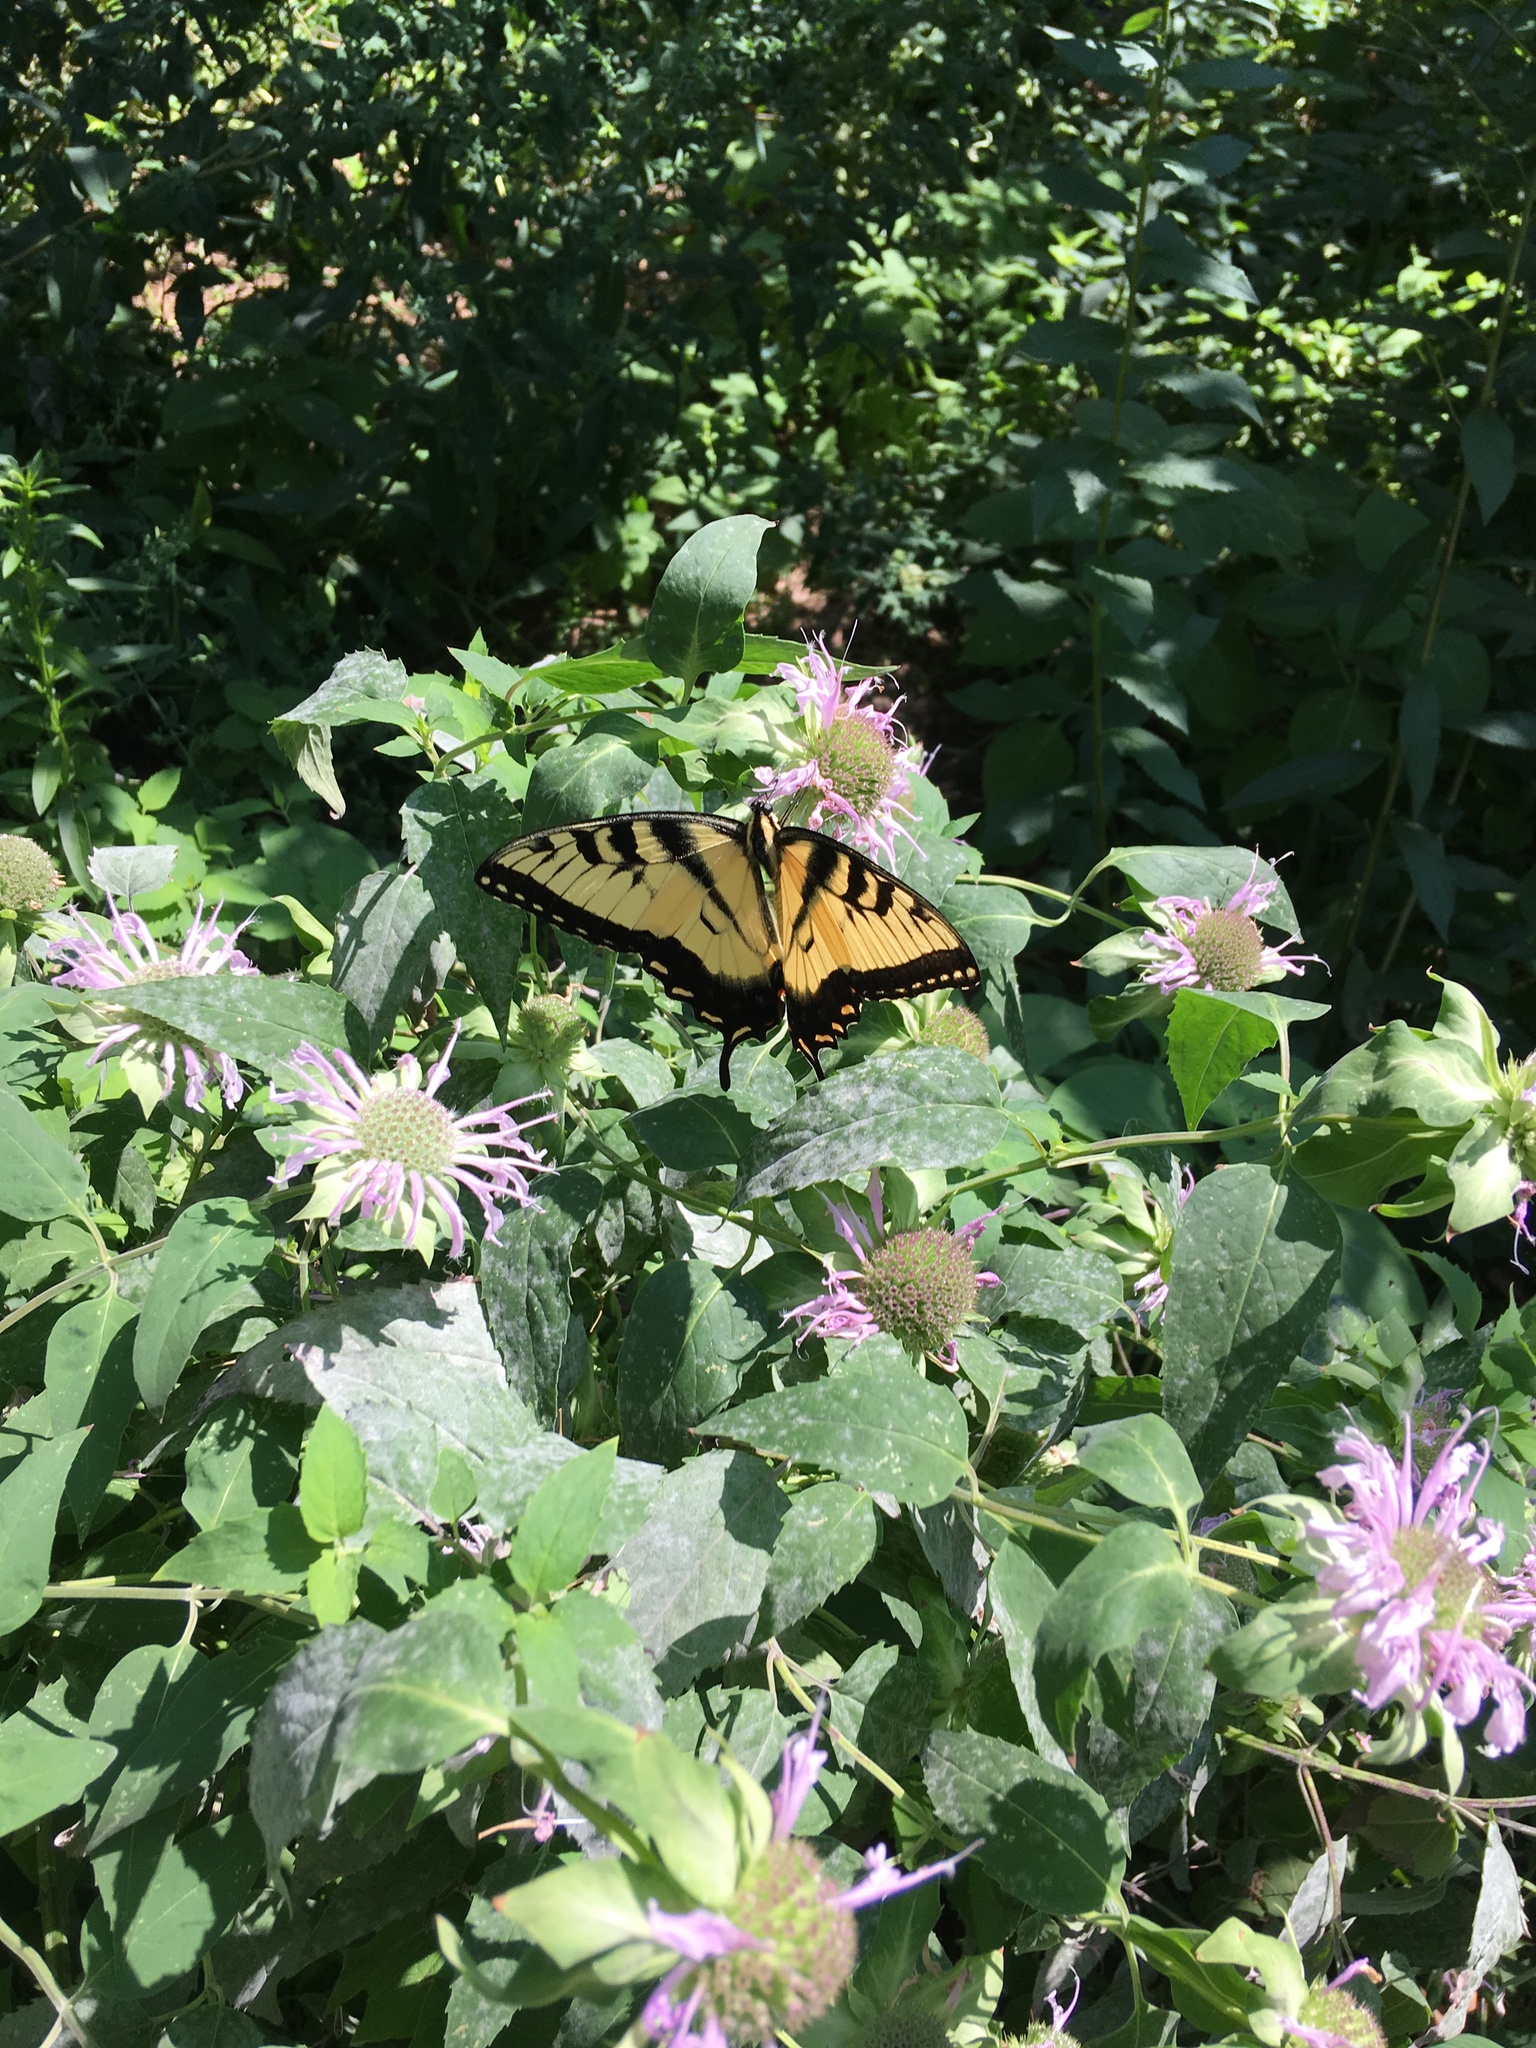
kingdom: Animalia
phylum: Arthropoda
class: Insecta
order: Lepidoptera
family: Papilionidae
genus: Papilio
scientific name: Papilio glaucus
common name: Tiger swallowtail
